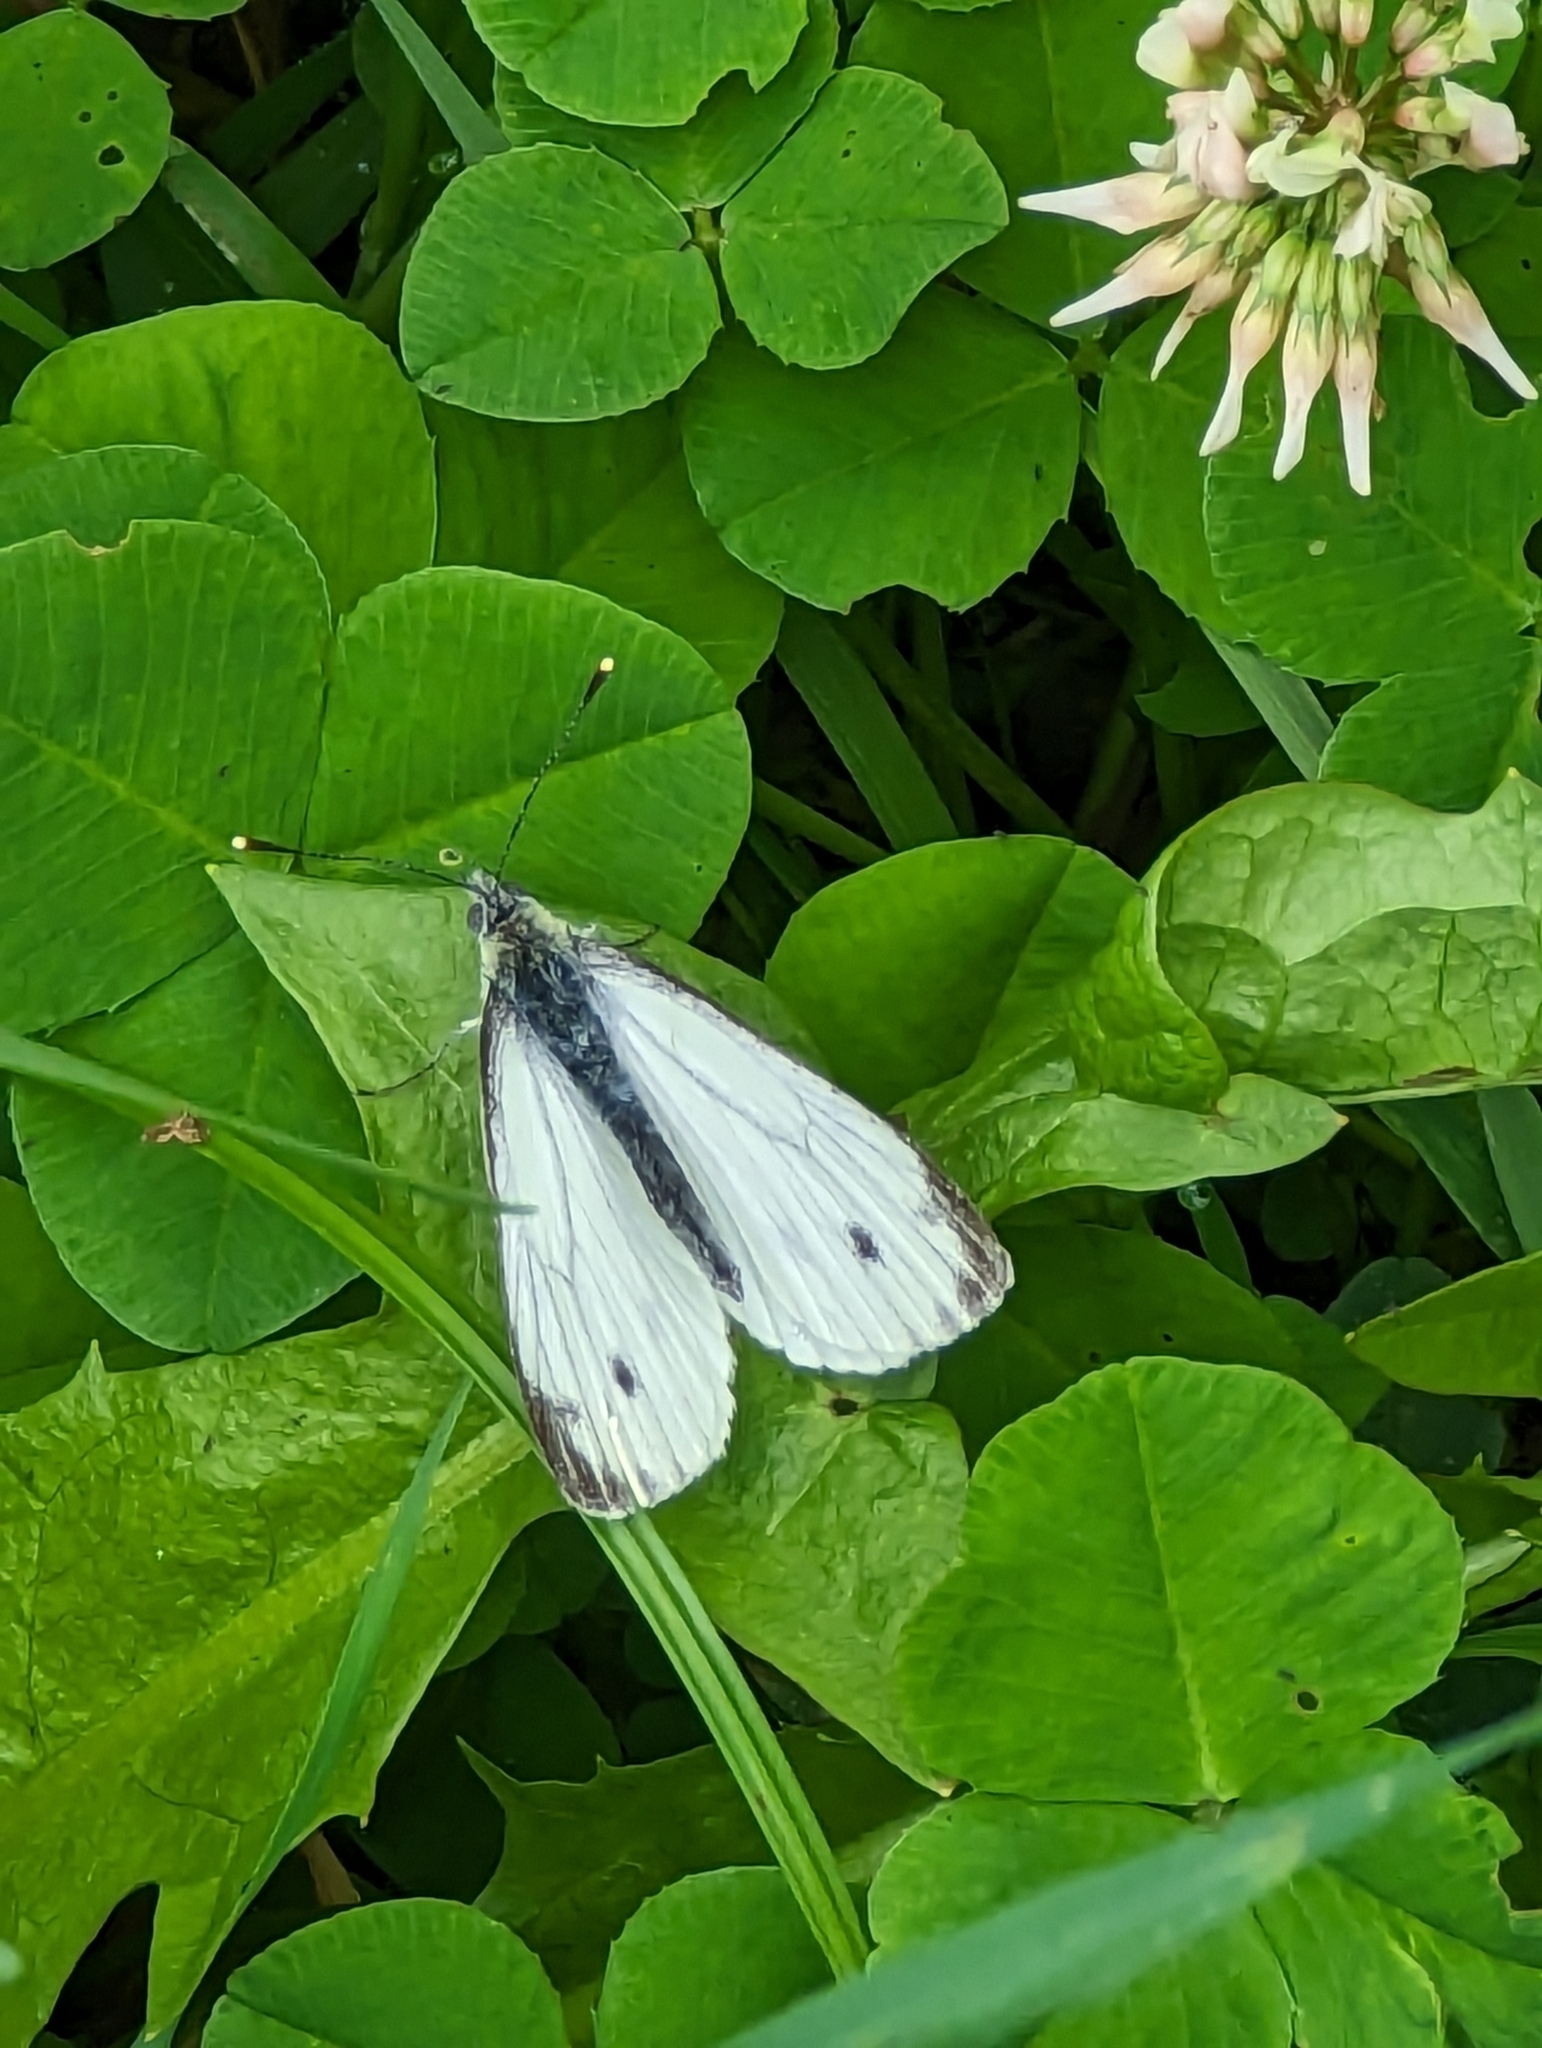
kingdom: Animalia
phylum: Arthropoda
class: Insecta
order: Lepidoptera
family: Pieridae
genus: Pieris
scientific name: Pieris napi
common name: Green-veined white
